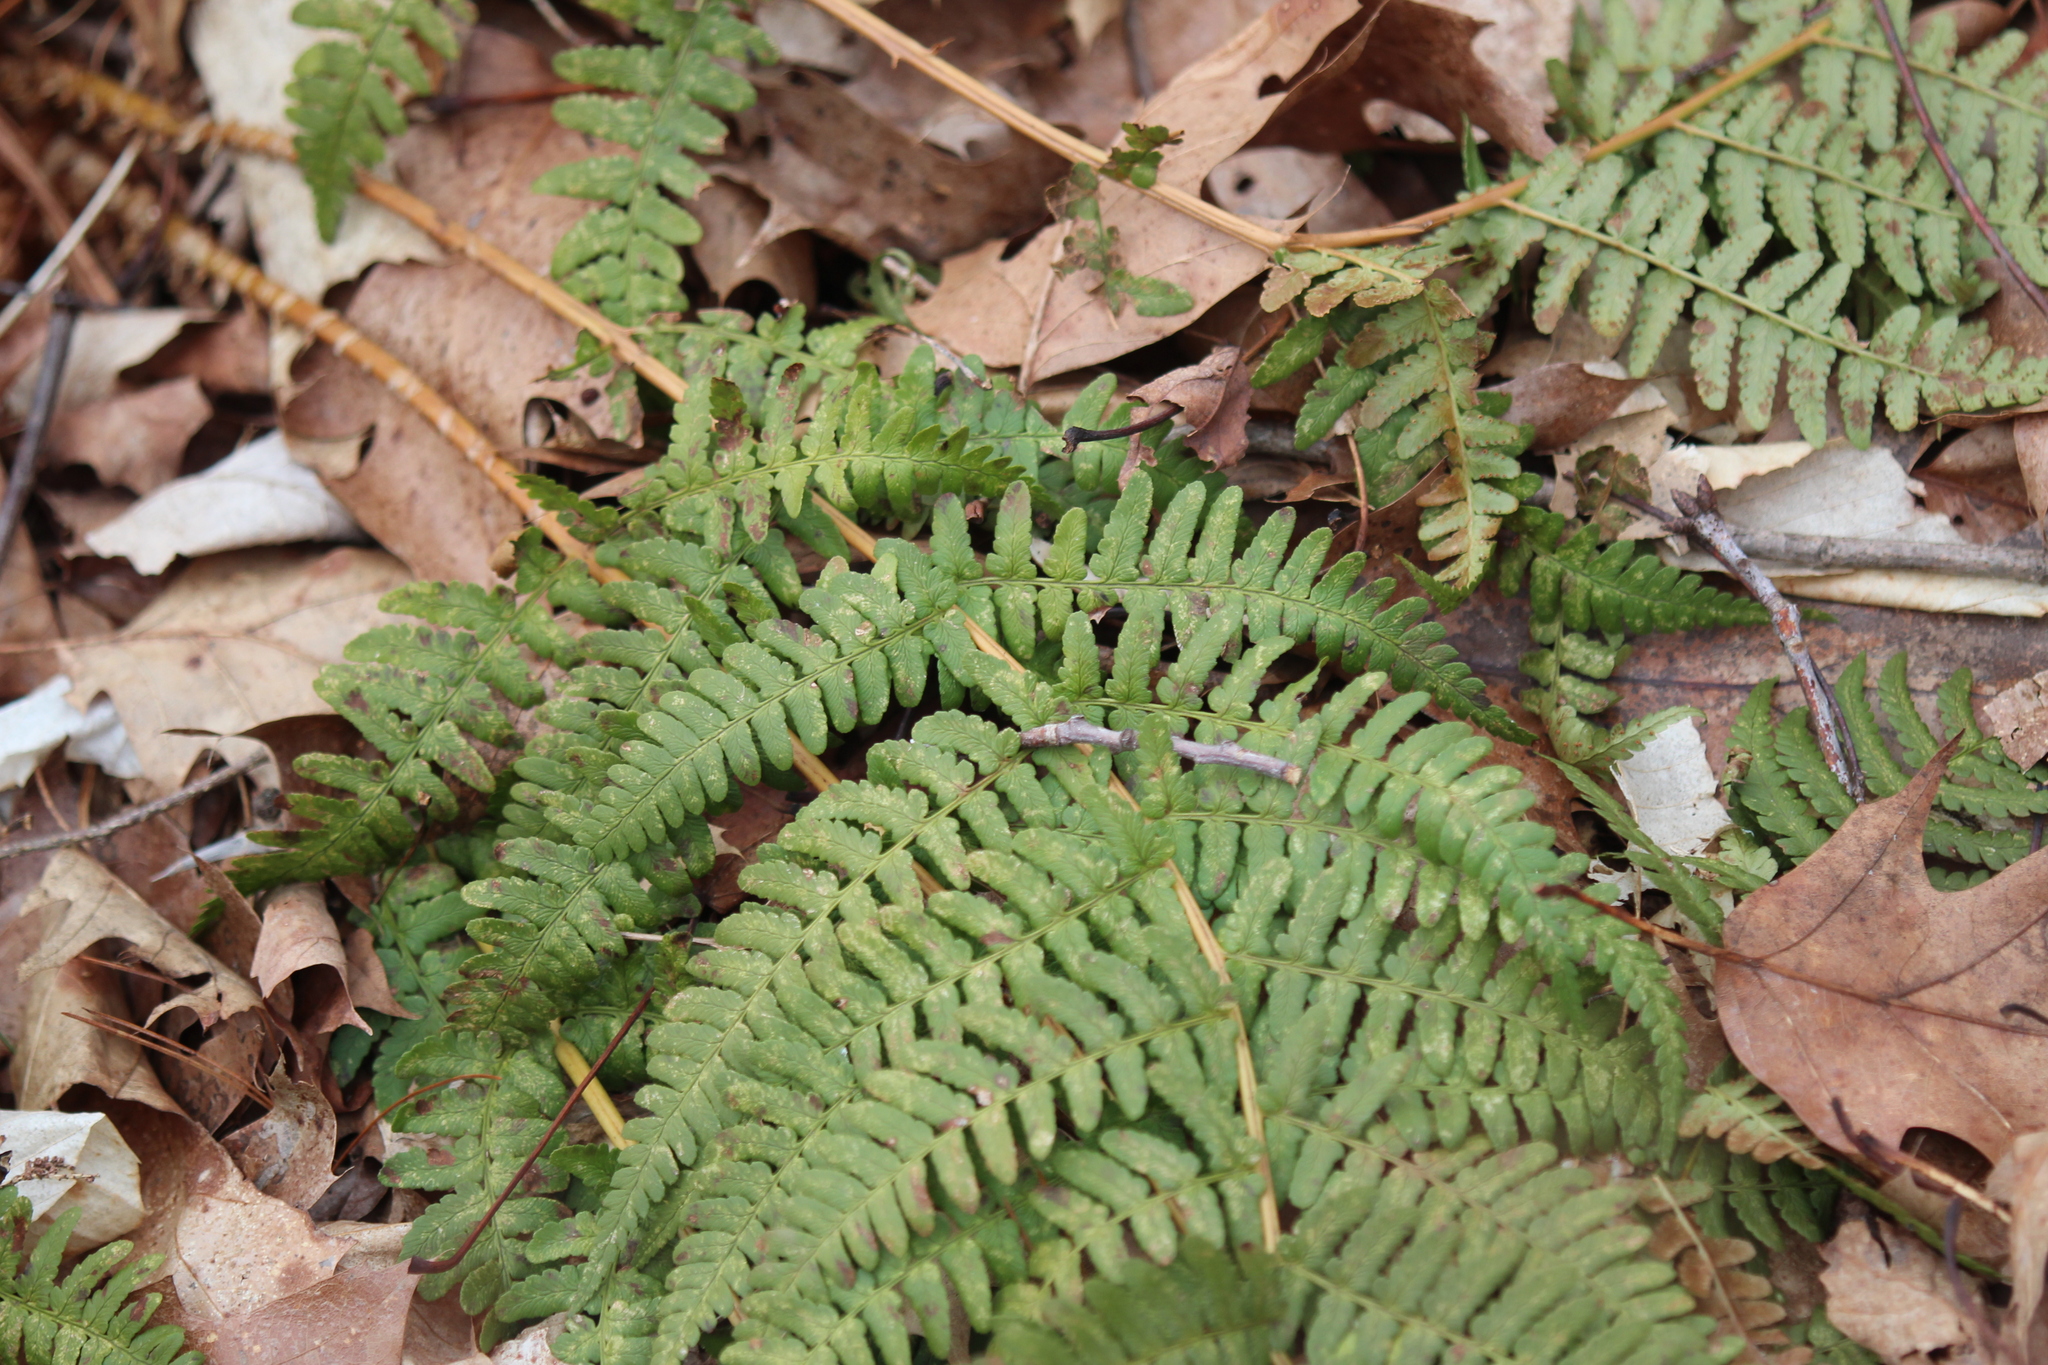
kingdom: Plantae
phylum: Tracheophyta
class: Polypodiopsida
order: Polypodiales
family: Dryopteridaceae
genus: Dryopteris
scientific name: Dryopteris marginalis
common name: Marginal wood fern
